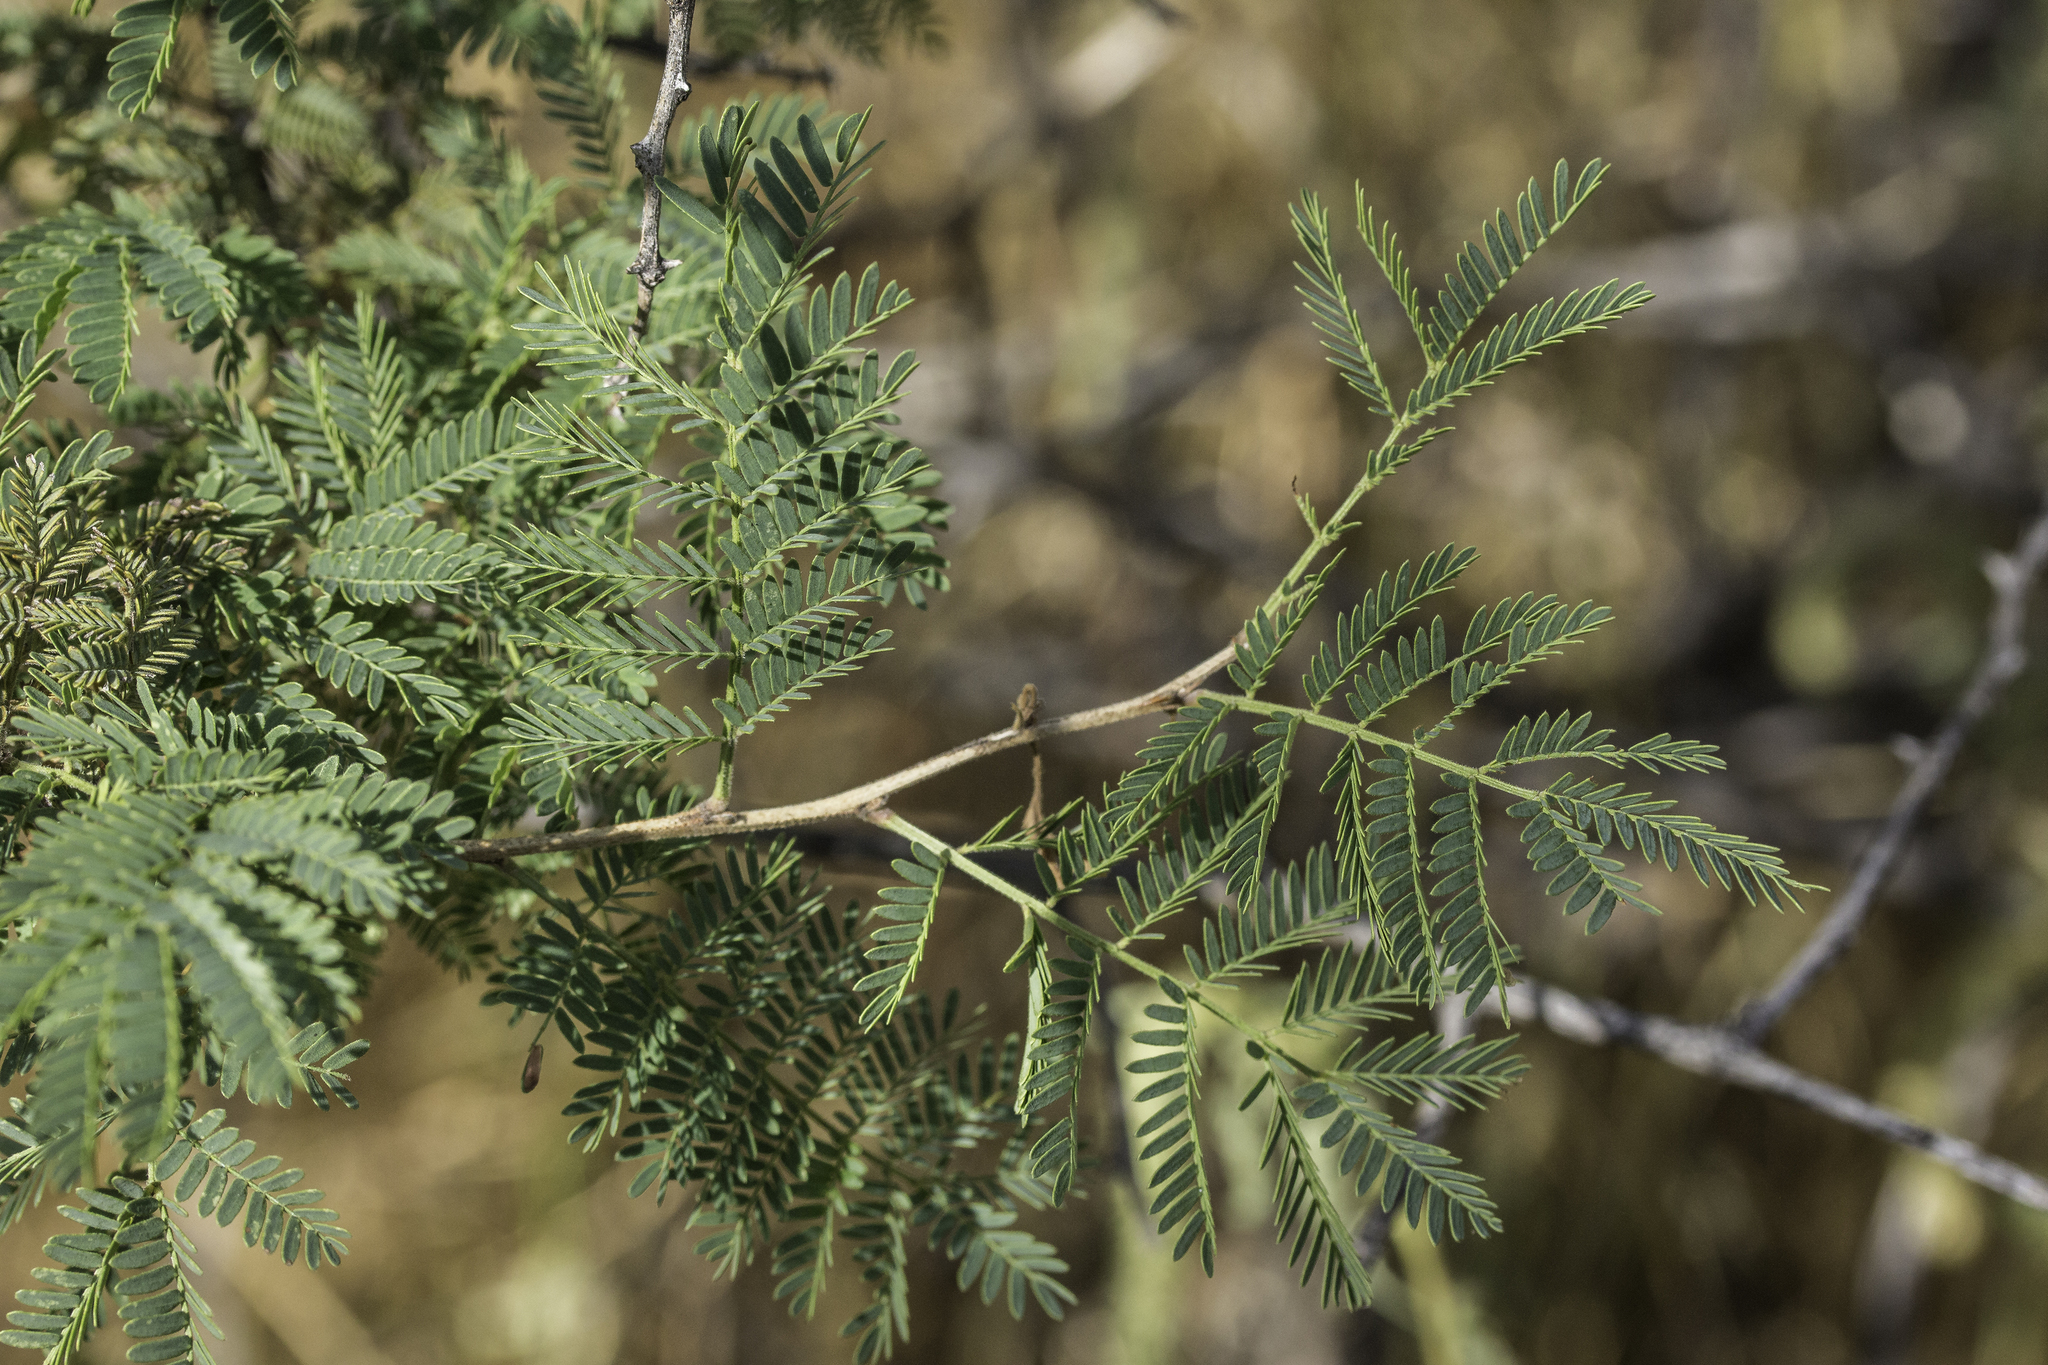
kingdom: Plantae
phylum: Tracheophyta
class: Magnoliopsida
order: Fabales
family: Fabaceae
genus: Mimosa
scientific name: Mimosa biuncifera
